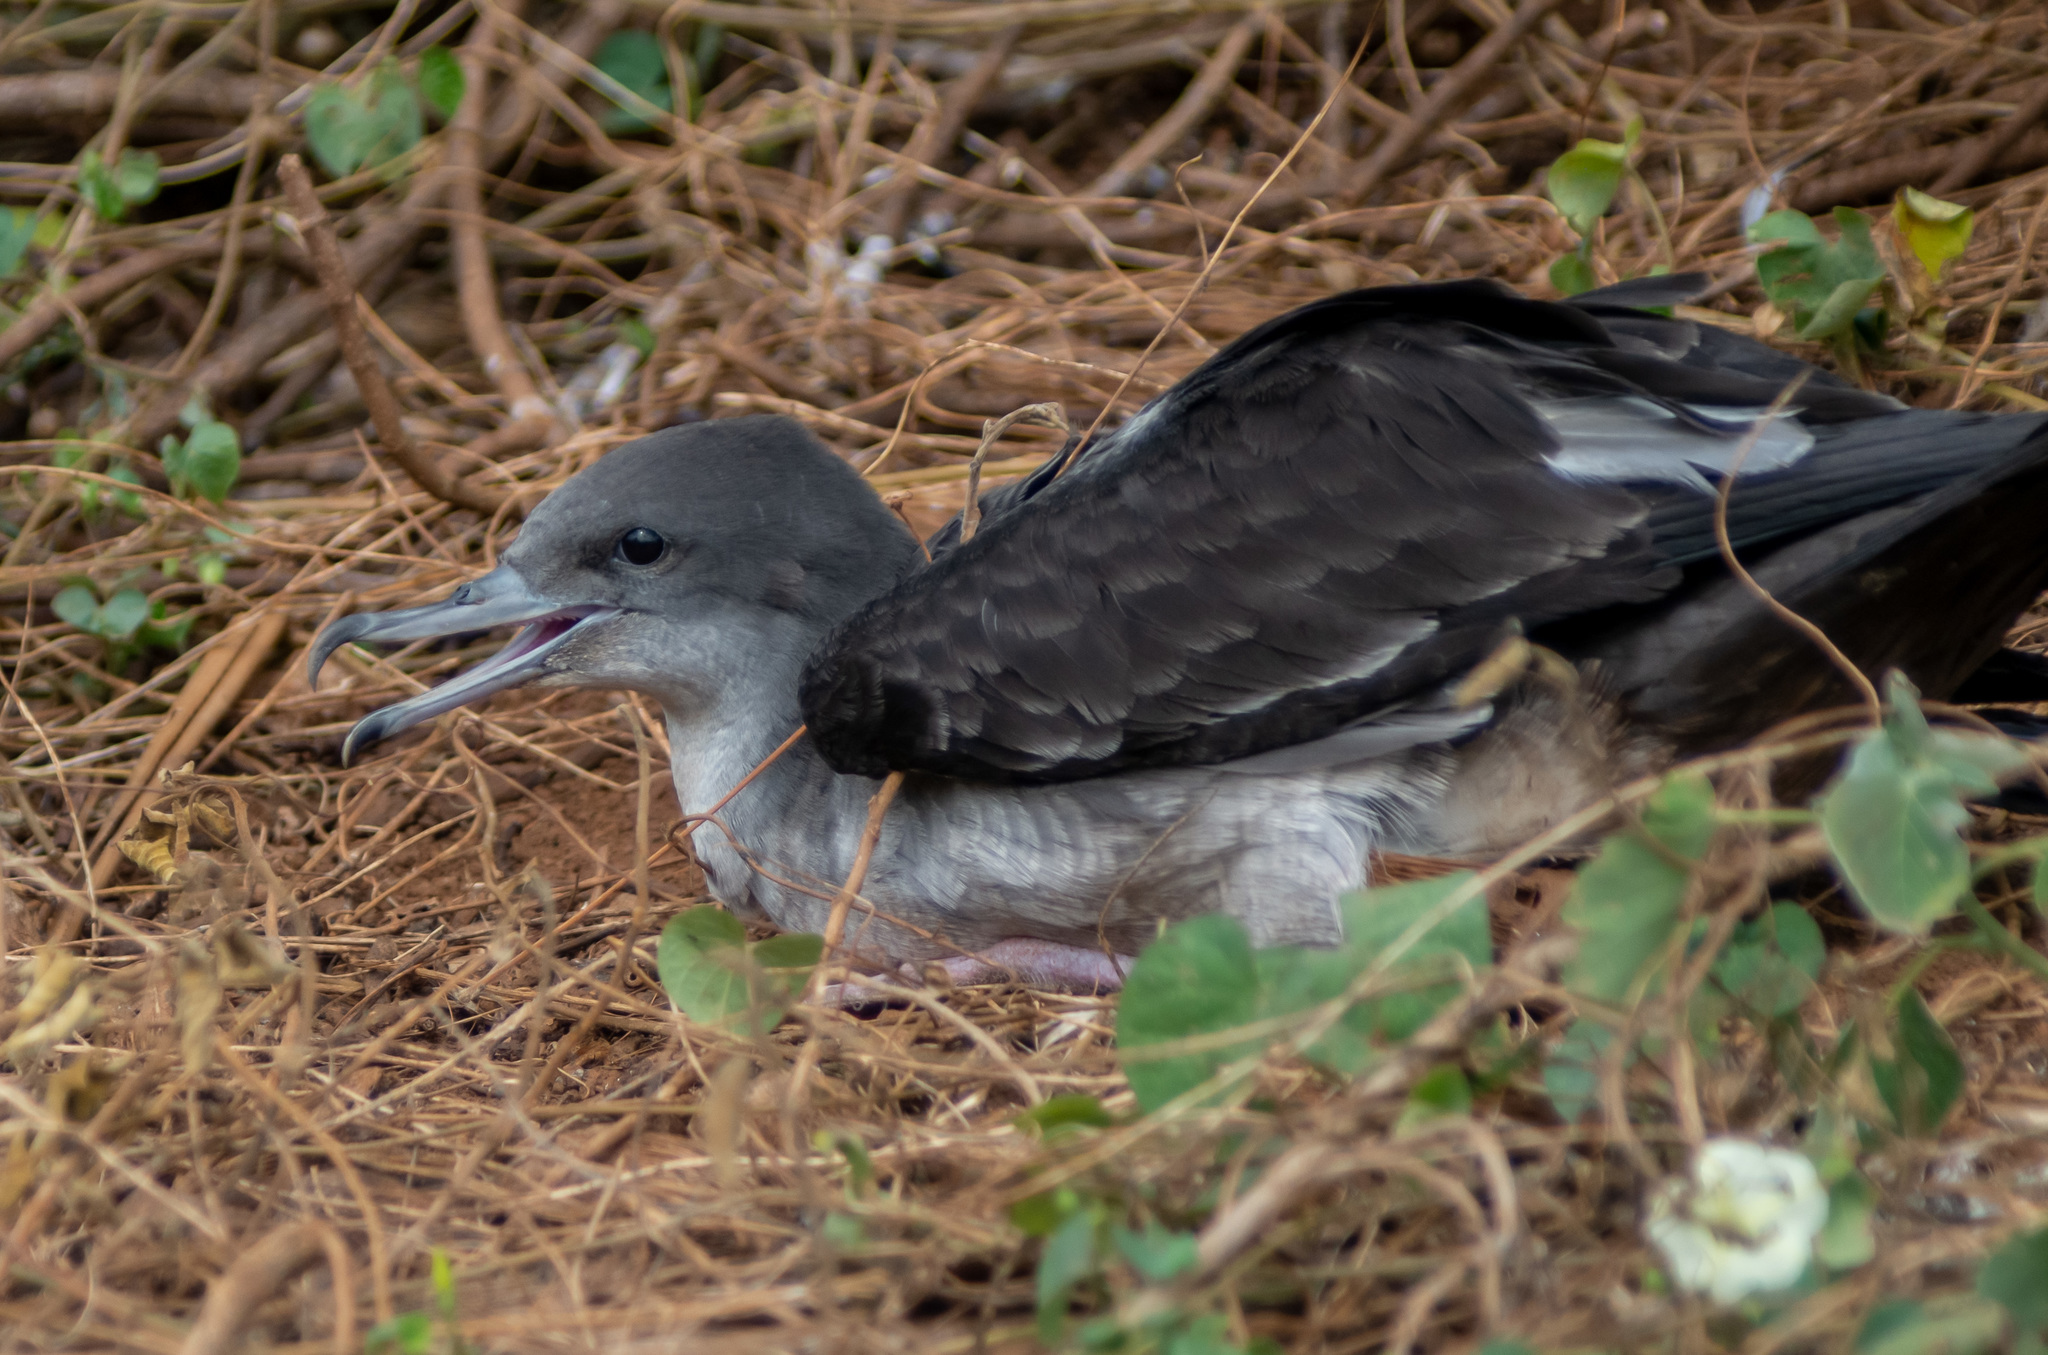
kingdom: Animalia
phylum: Chordata
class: Aves
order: Procellariiformes
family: Procellariidae
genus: Puffinus
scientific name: Puffinus pacificus
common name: Wedge-tailed shearwater
